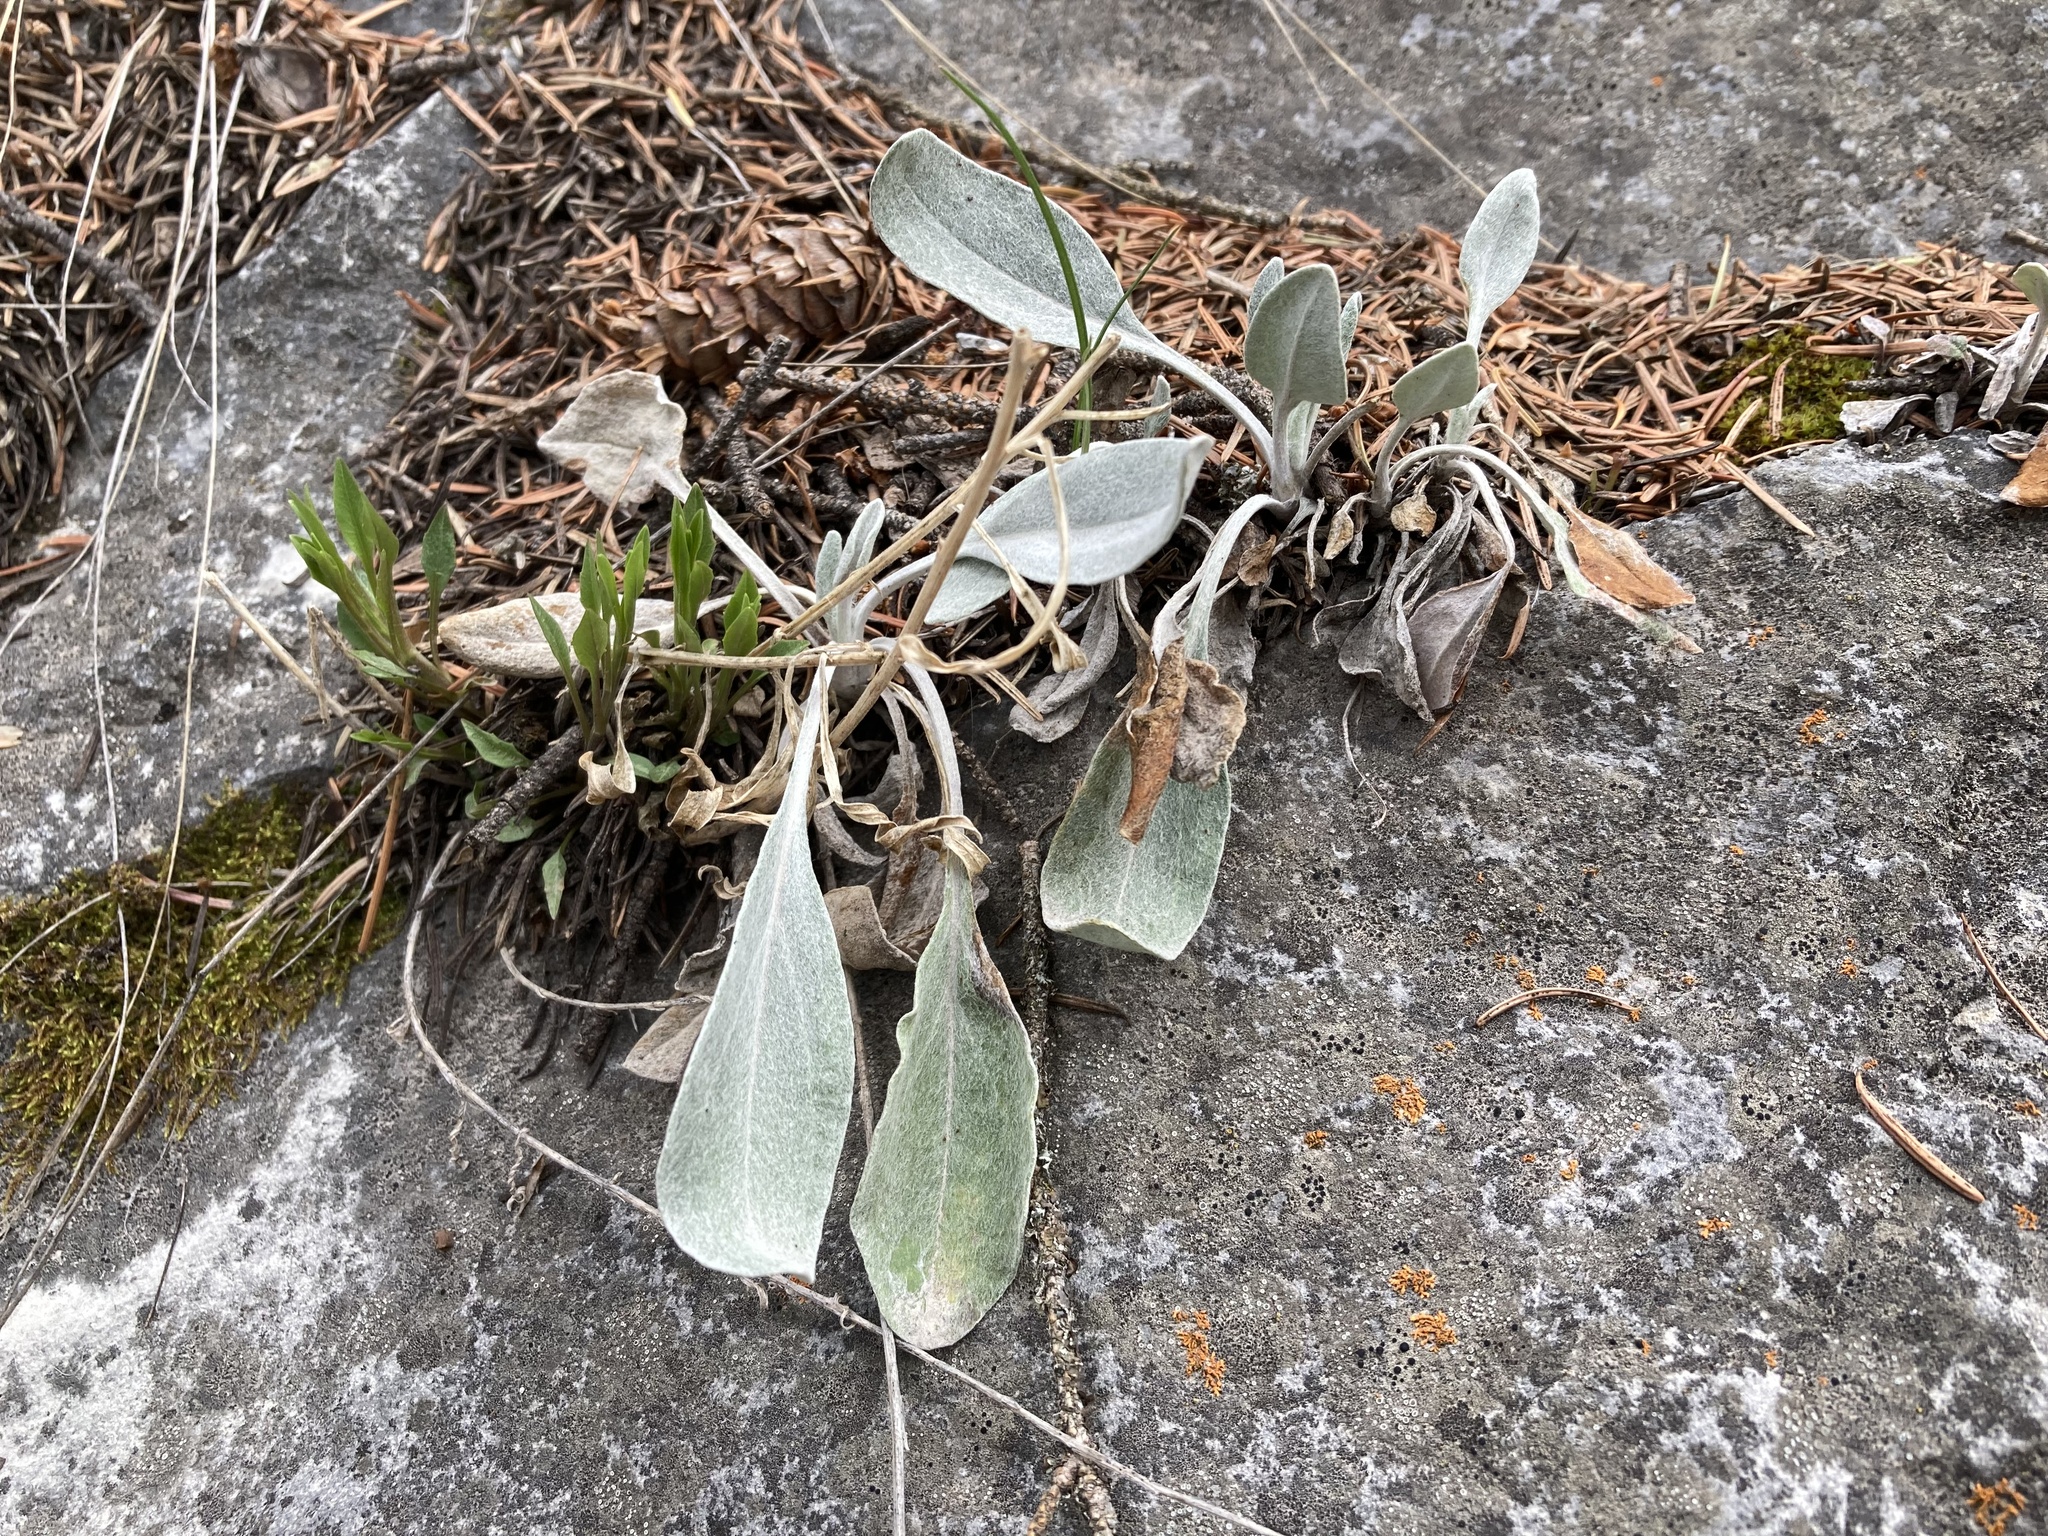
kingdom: Plantae
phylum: Tracheophyta
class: Magnoliopsida
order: Asterales
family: Asteraceae
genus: Packera
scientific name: Packera cana
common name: Woolly groundsel
